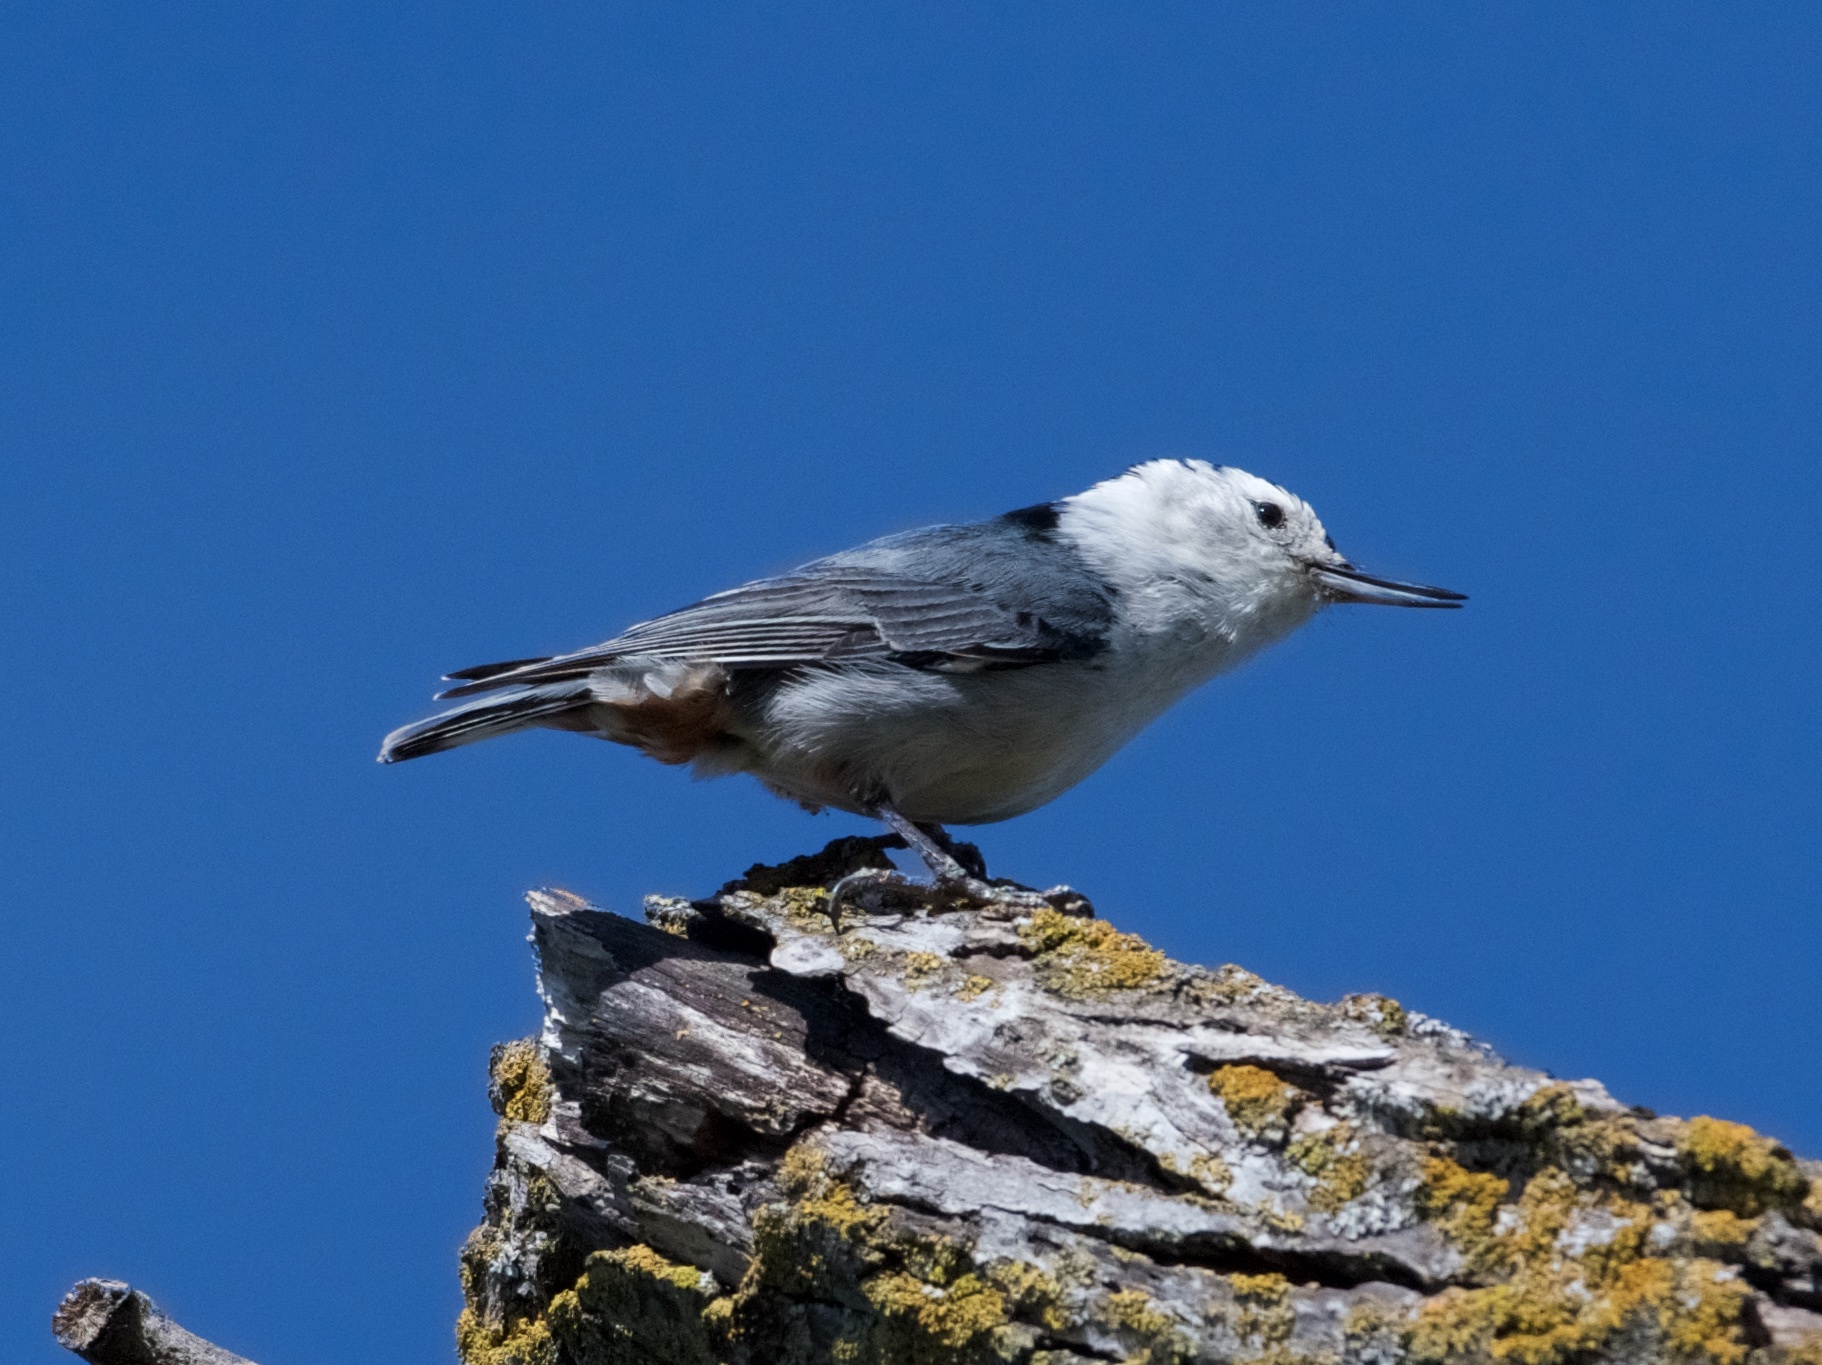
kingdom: Animalia
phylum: Chordata
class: Aves
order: Passeriformes
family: Sittidae
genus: Sitta
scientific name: Sitta carolinensis
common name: White-breasted nuthatch
